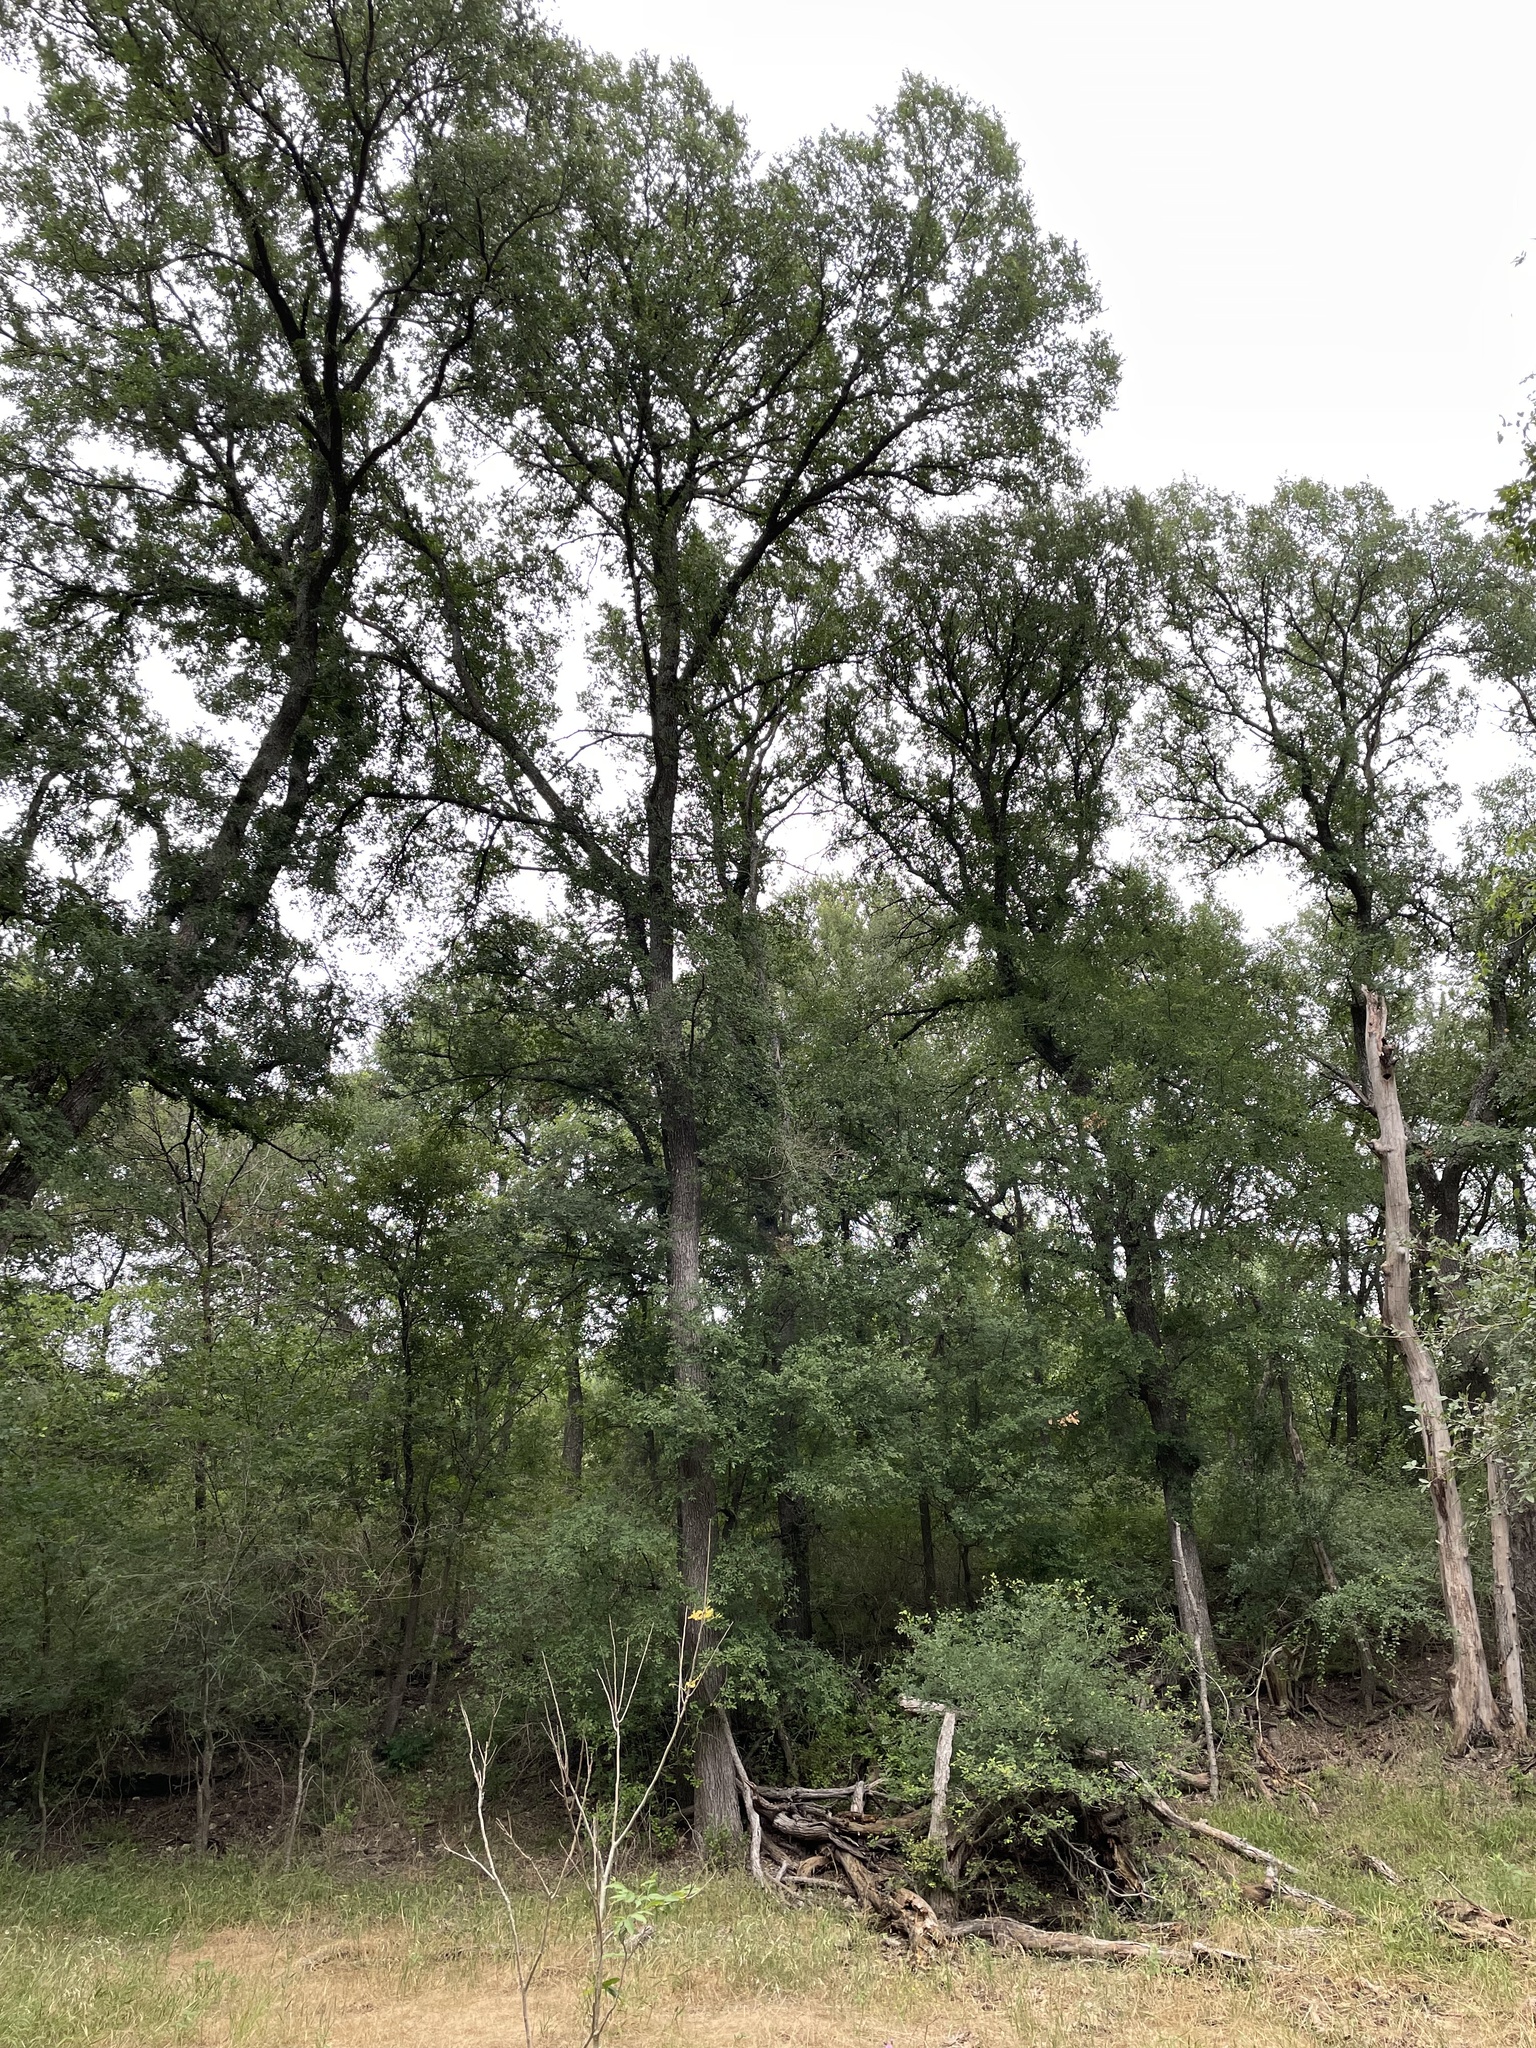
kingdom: Plantae
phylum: Tracheophyta
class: Magnoliopsida
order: Rosales
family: Ulmaceae
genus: Ulmus
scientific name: Ulmus crassifolia
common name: Basket elm
